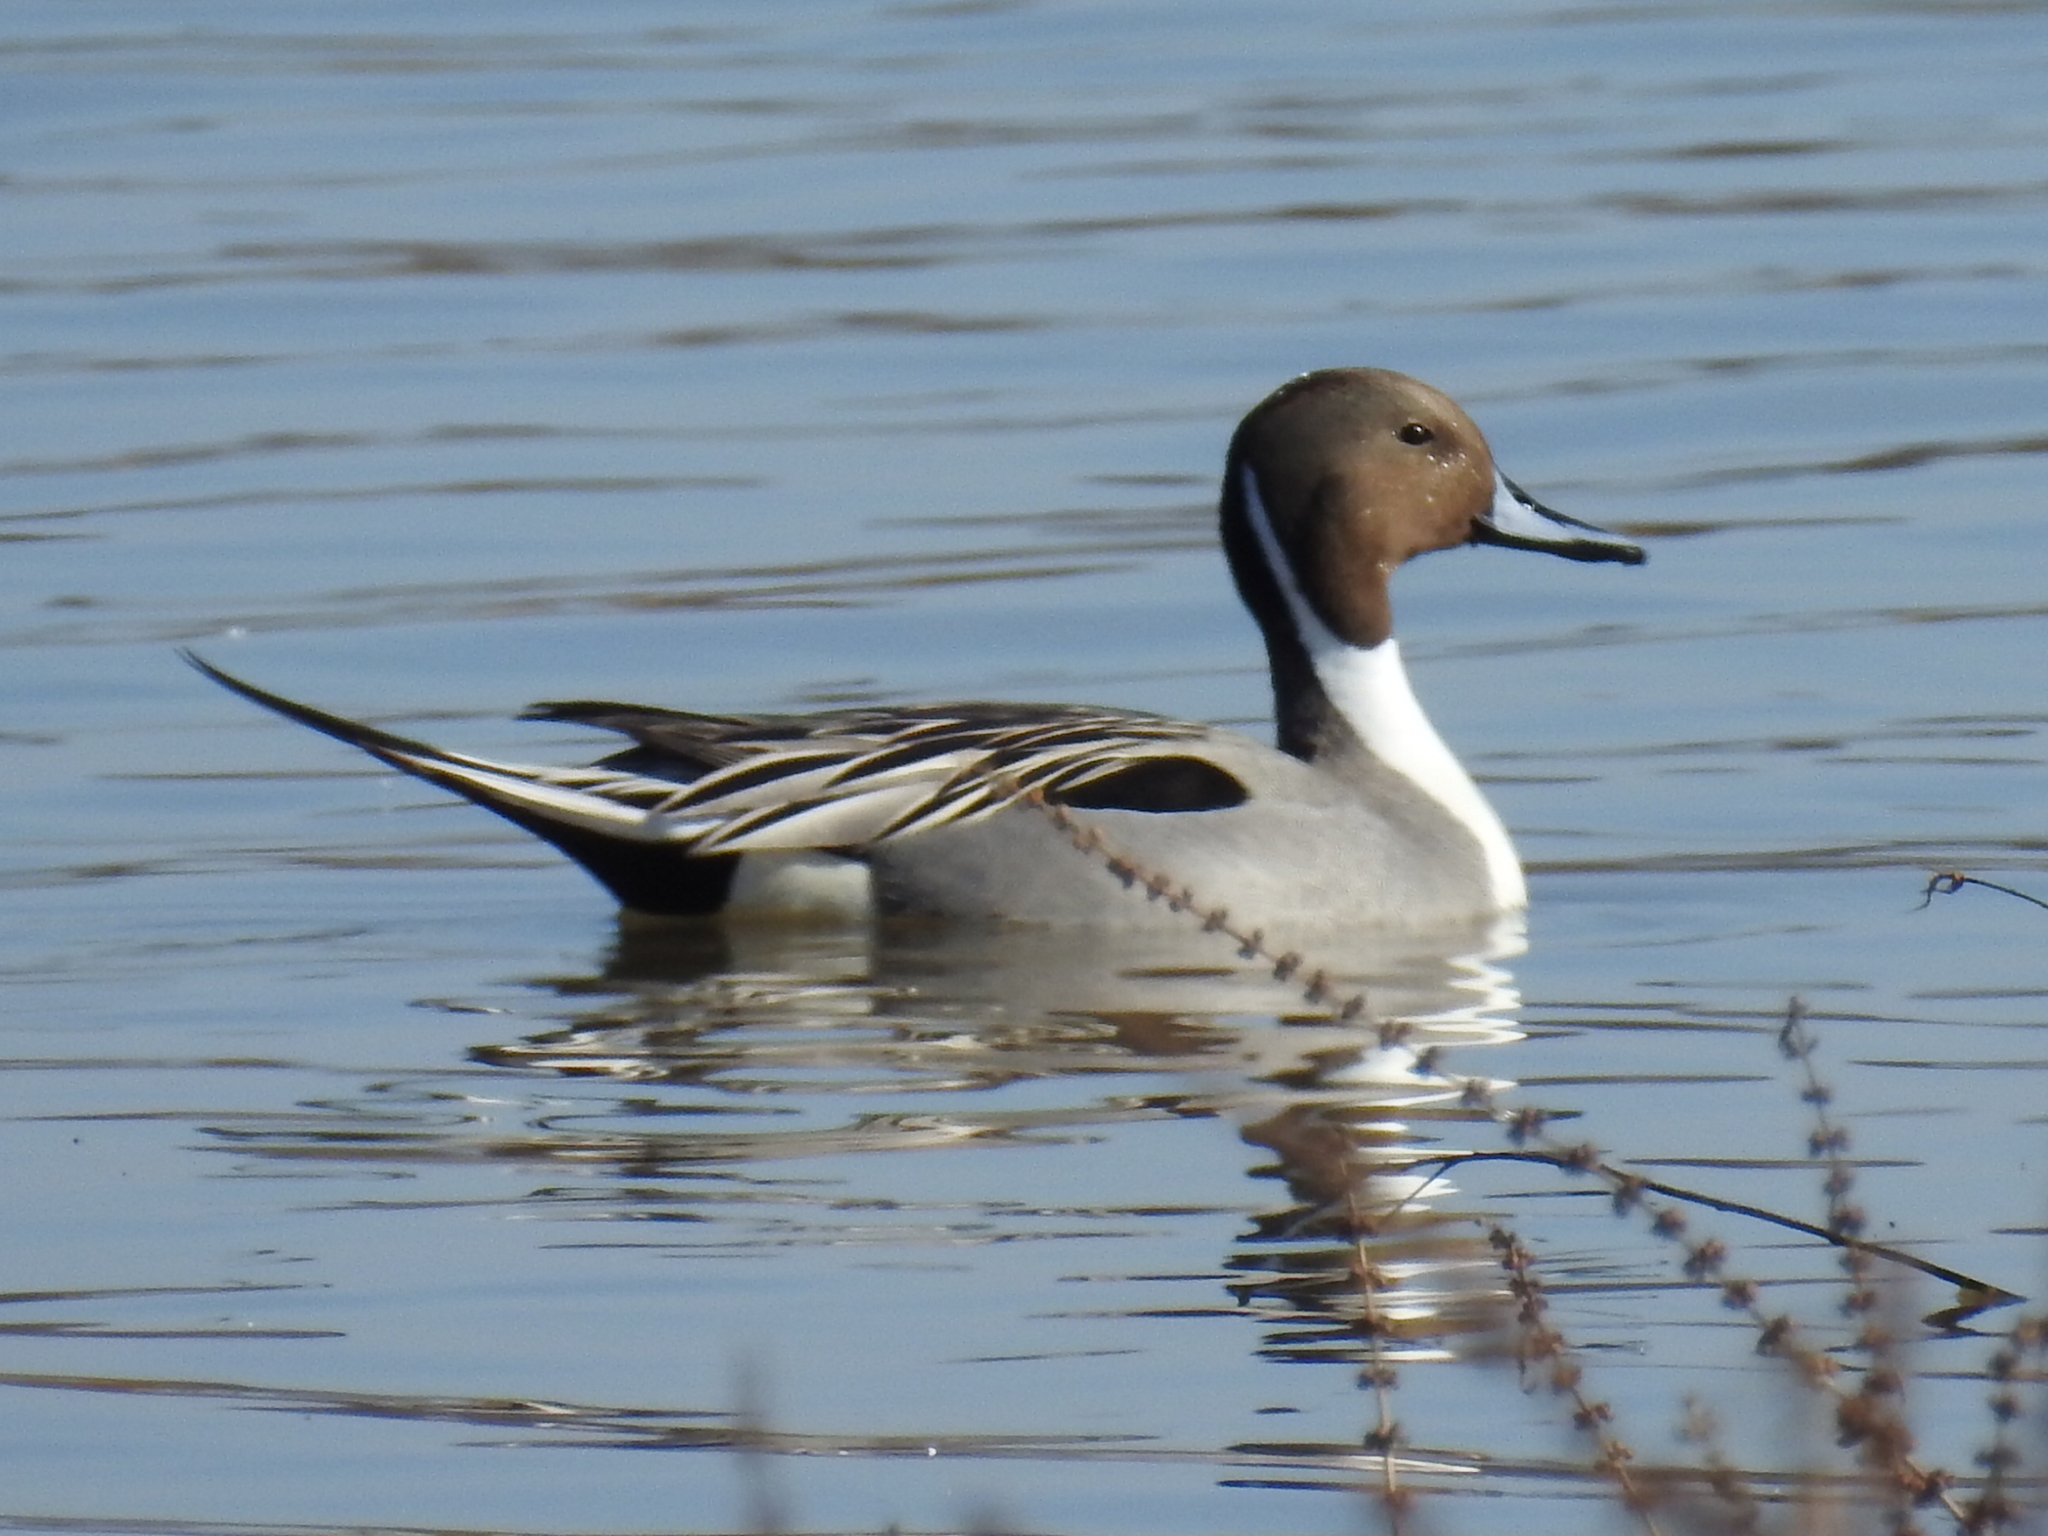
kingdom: Animalia
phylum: Chordata
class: Aves
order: Anseriformes
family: Anatidae
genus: Anas
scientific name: Anas acuta
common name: Northern pintail
